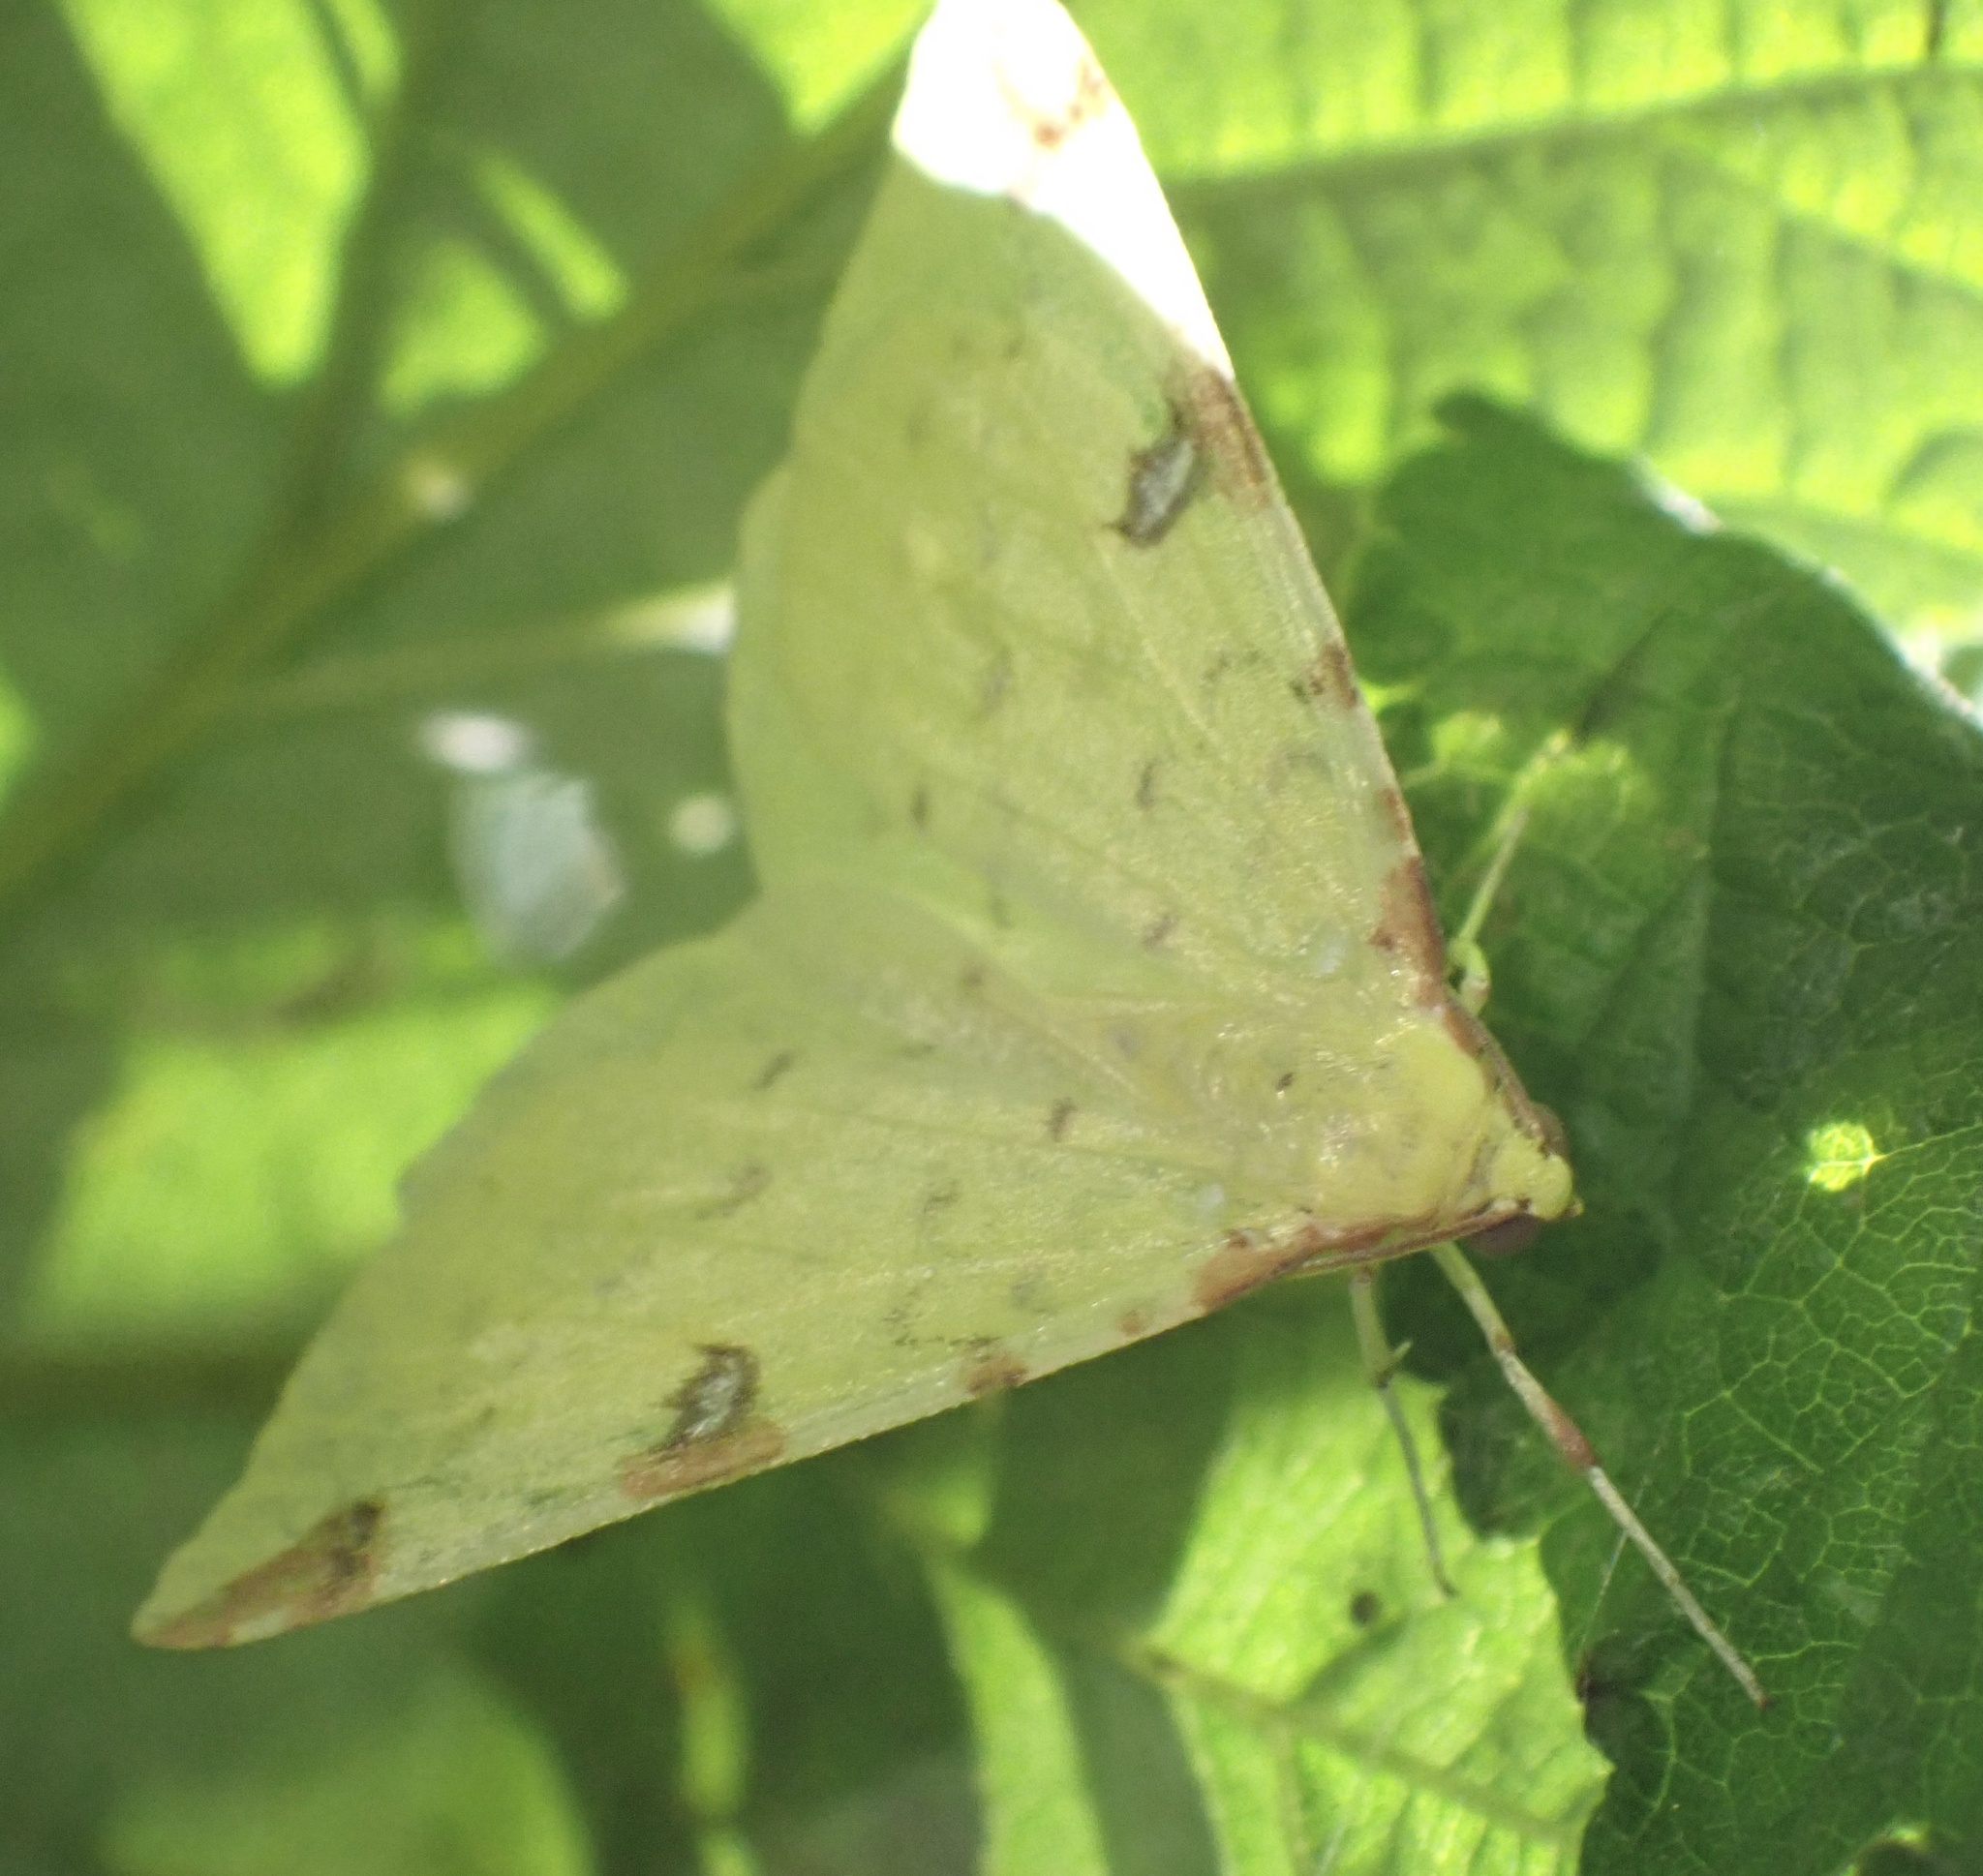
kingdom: Animalia
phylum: Arthropoda
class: Insecta
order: Lepidoptera
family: Geometridae
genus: Opisthograptis
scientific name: Opisthograptis luteolata
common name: Brimstone moth
